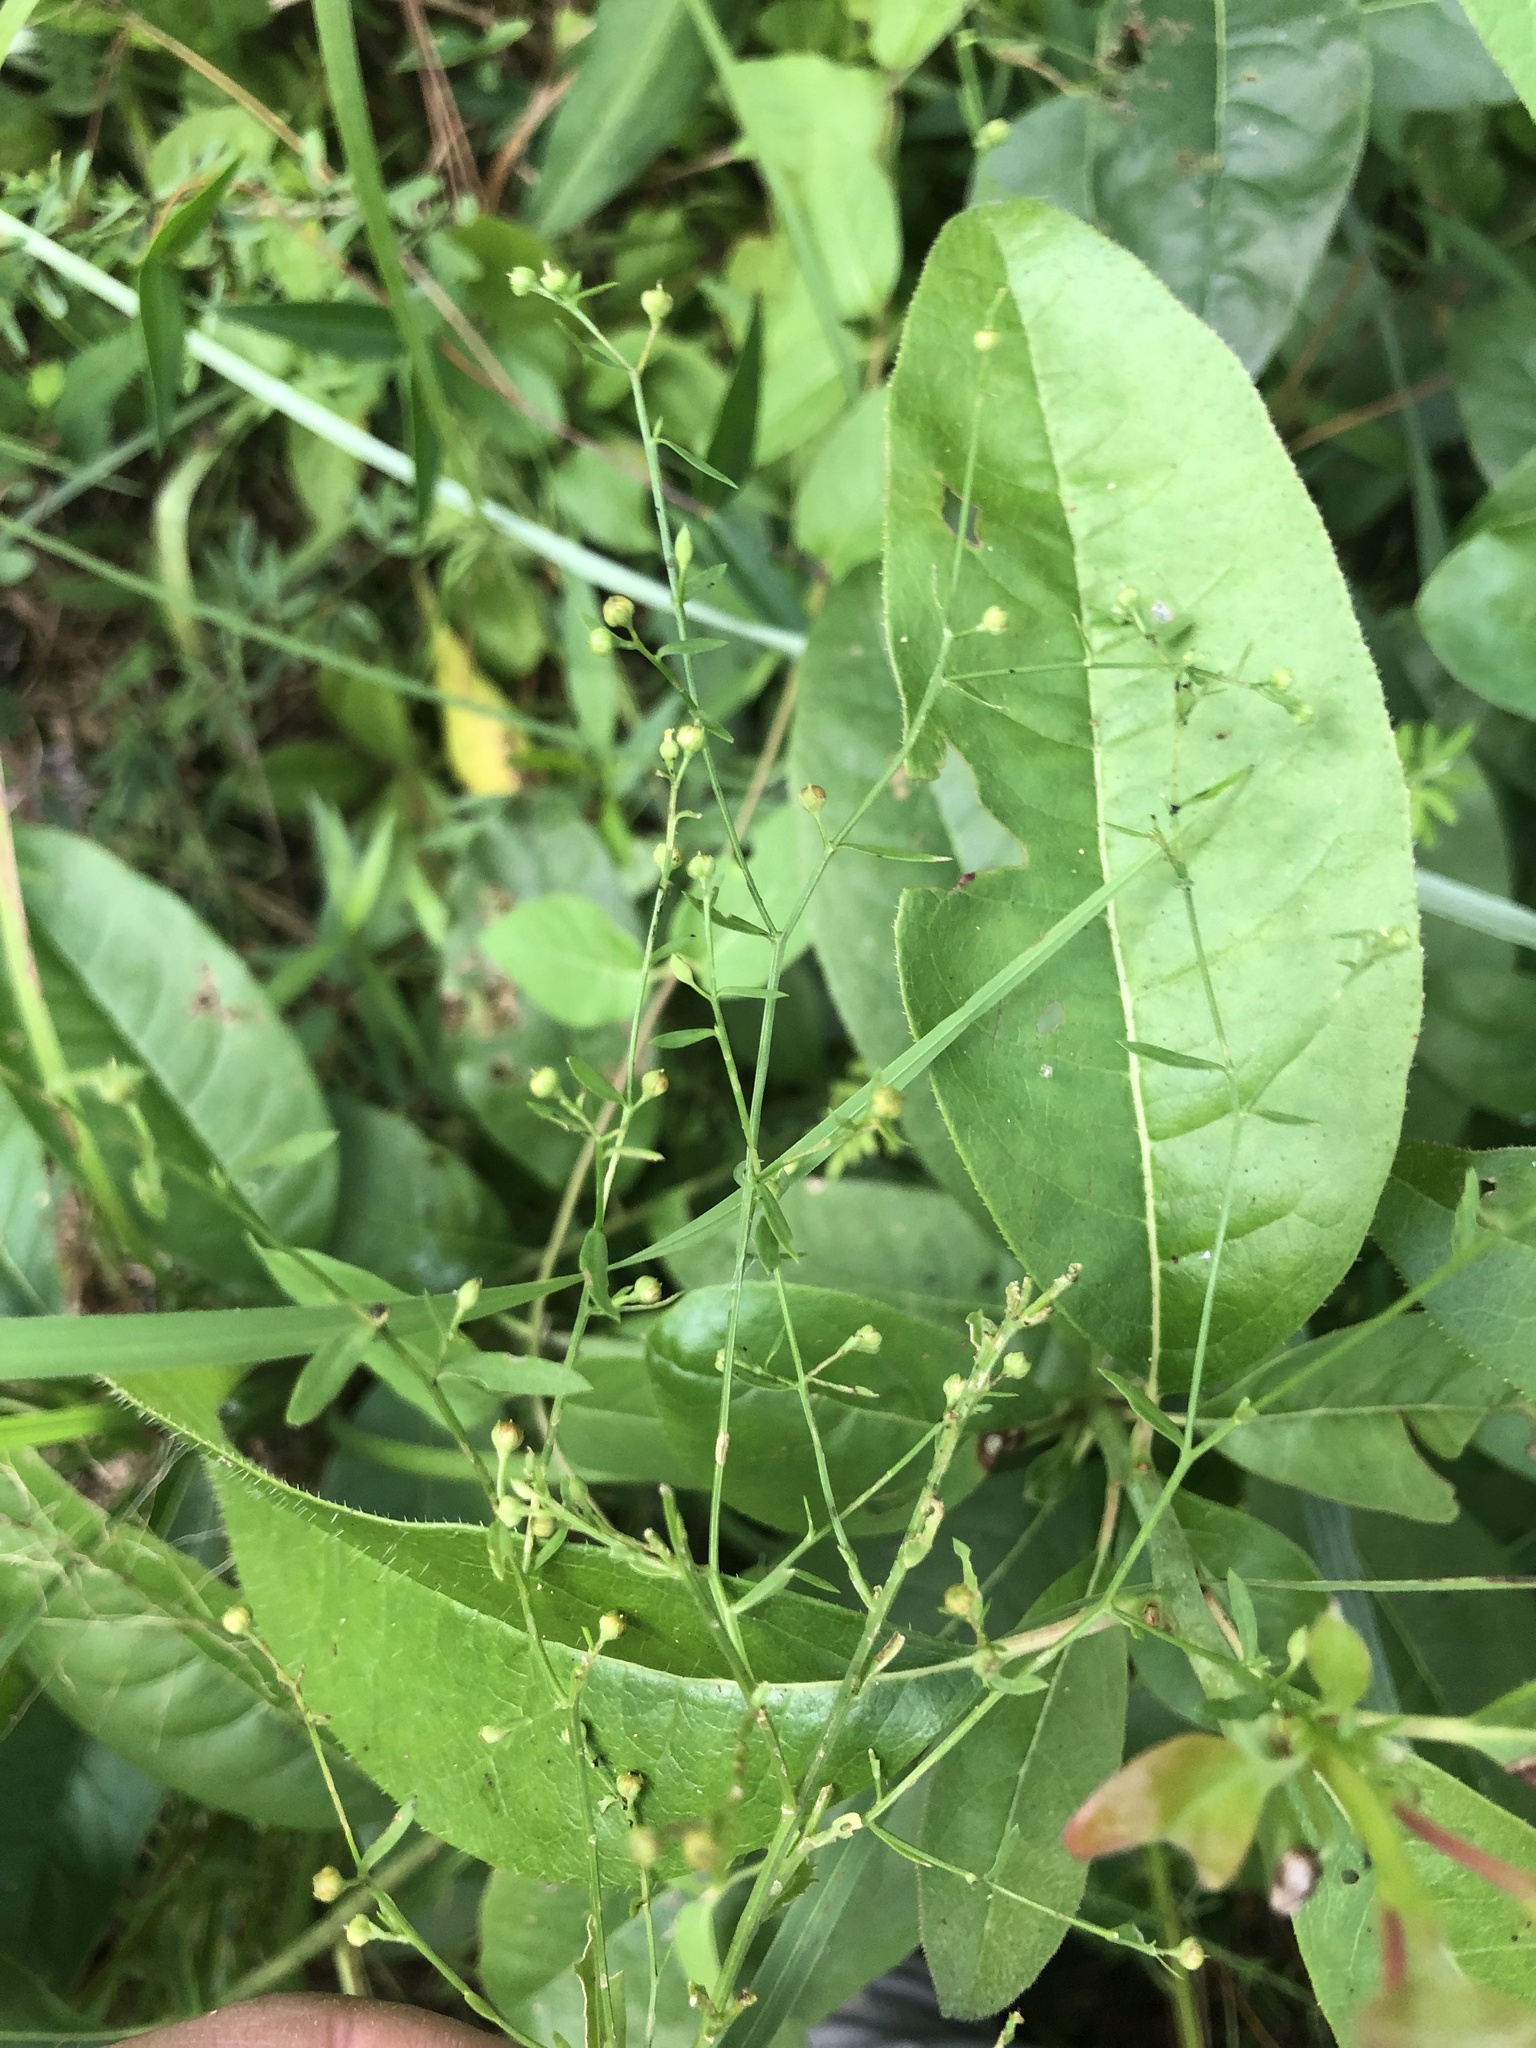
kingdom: Plantae
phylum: Tracheophyta
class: Magnoliopsida
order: Malpighiales
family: Linaceae
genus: Linum
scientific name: Linum striatum
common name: Ridged yellow flax
